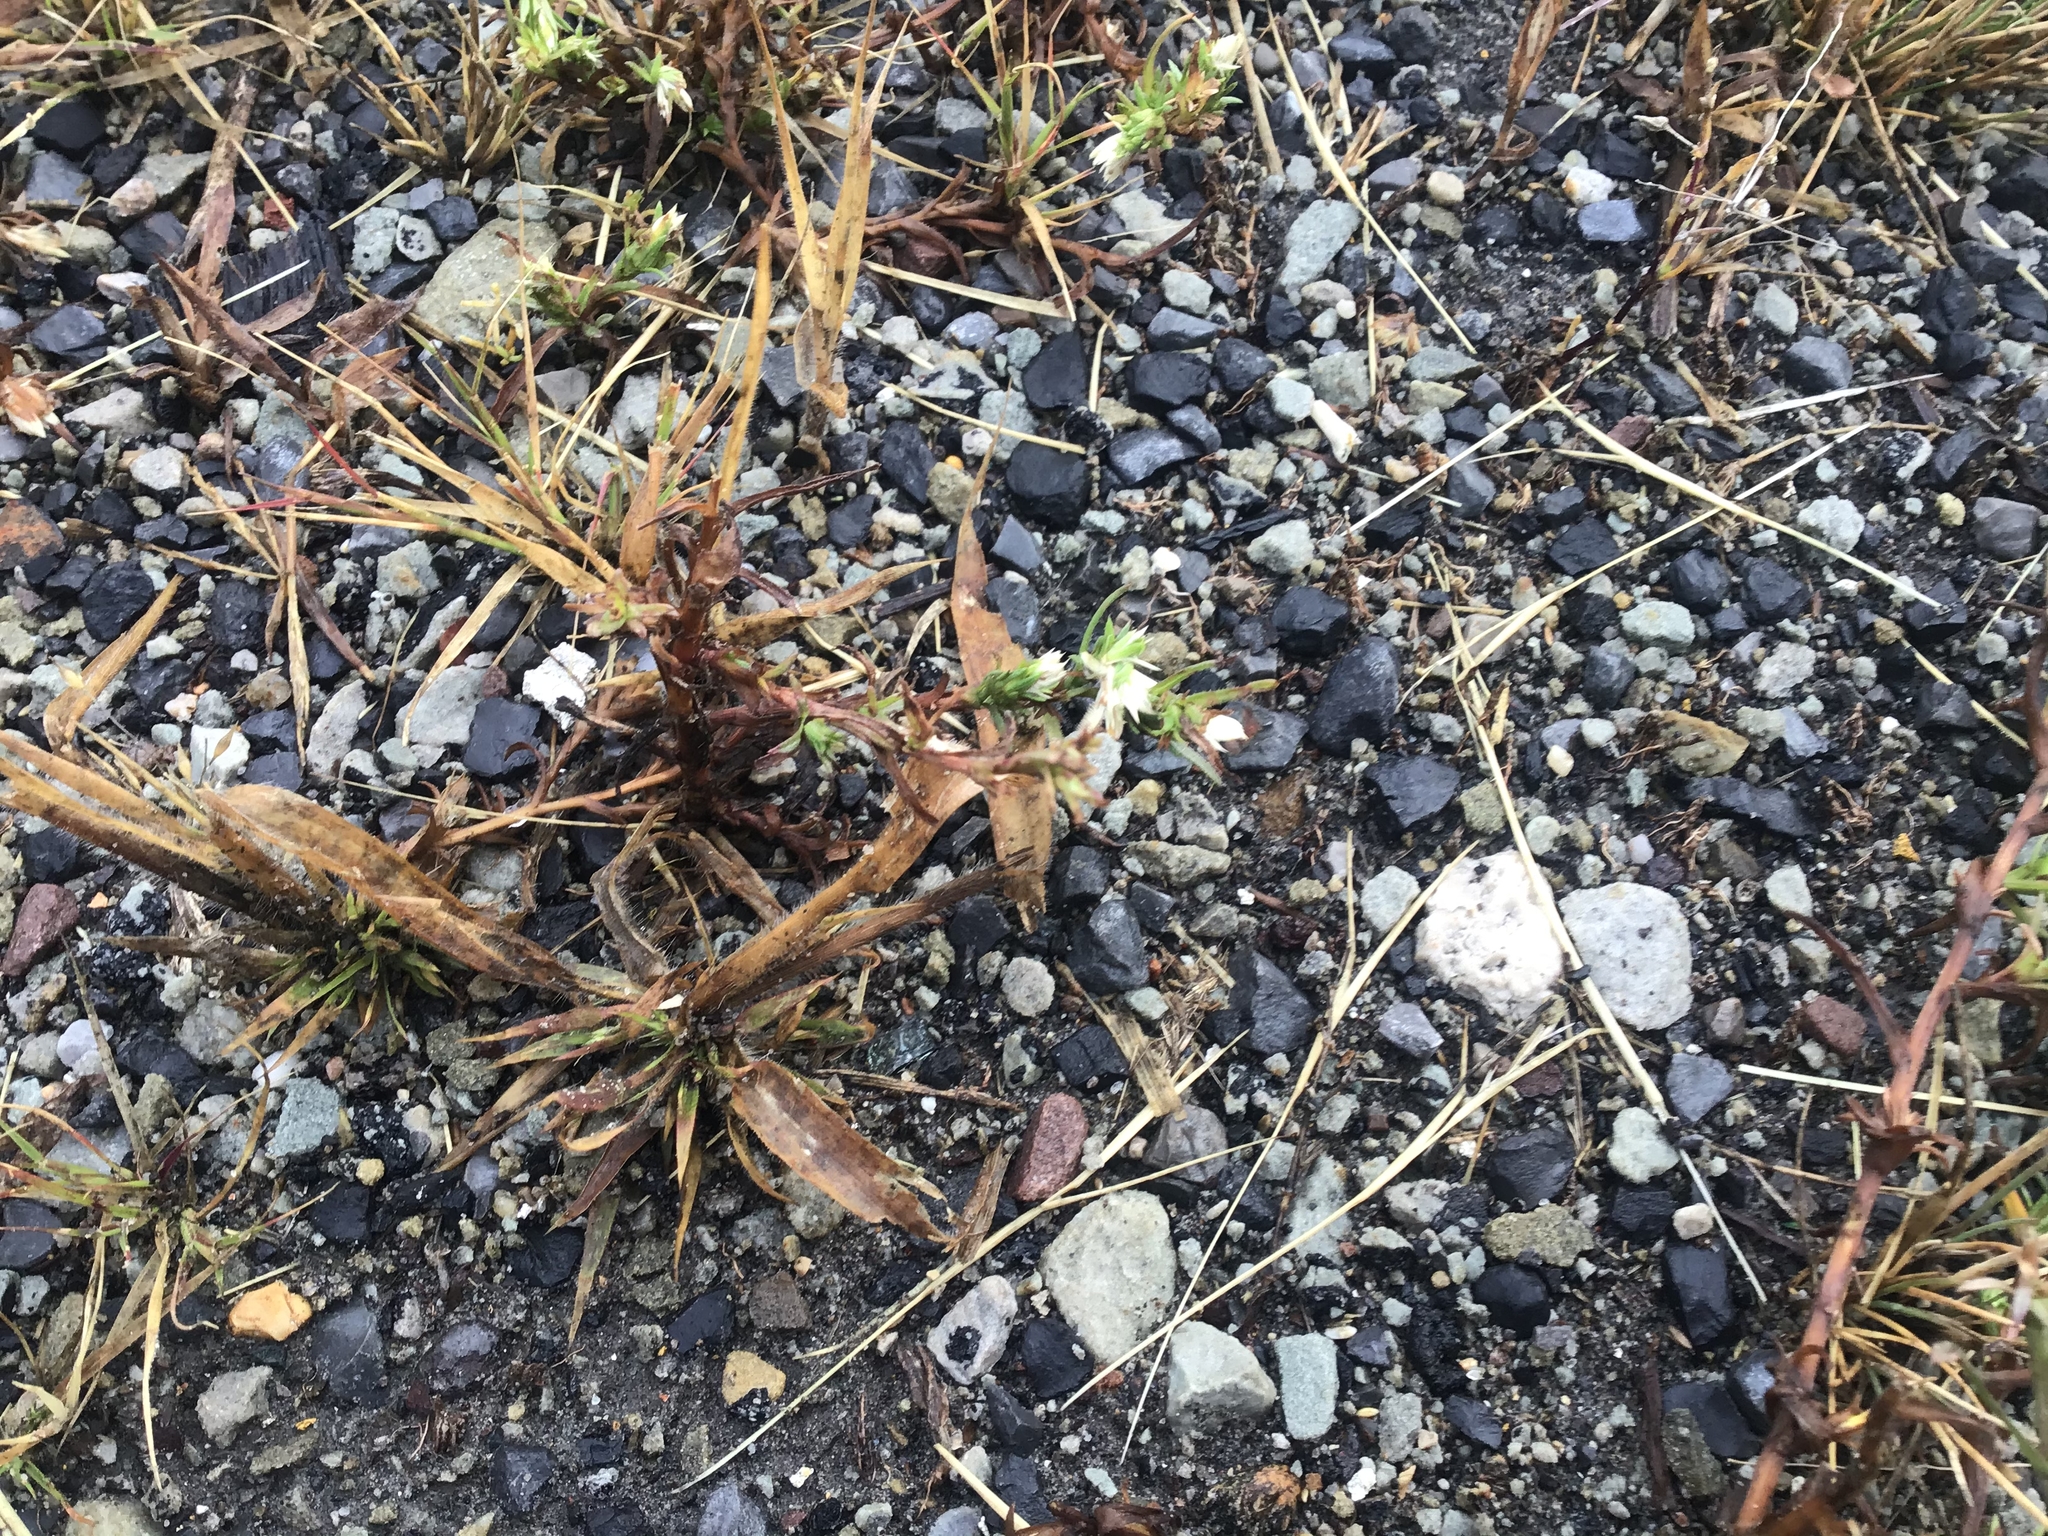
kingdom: Plantae
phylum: Tracheophyta
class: Magnoliopsida
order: Asterales
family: Asteraceae
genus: Symphyotrichum
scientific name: Symphyotrichum ciliatum
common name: Rayless annual aster
